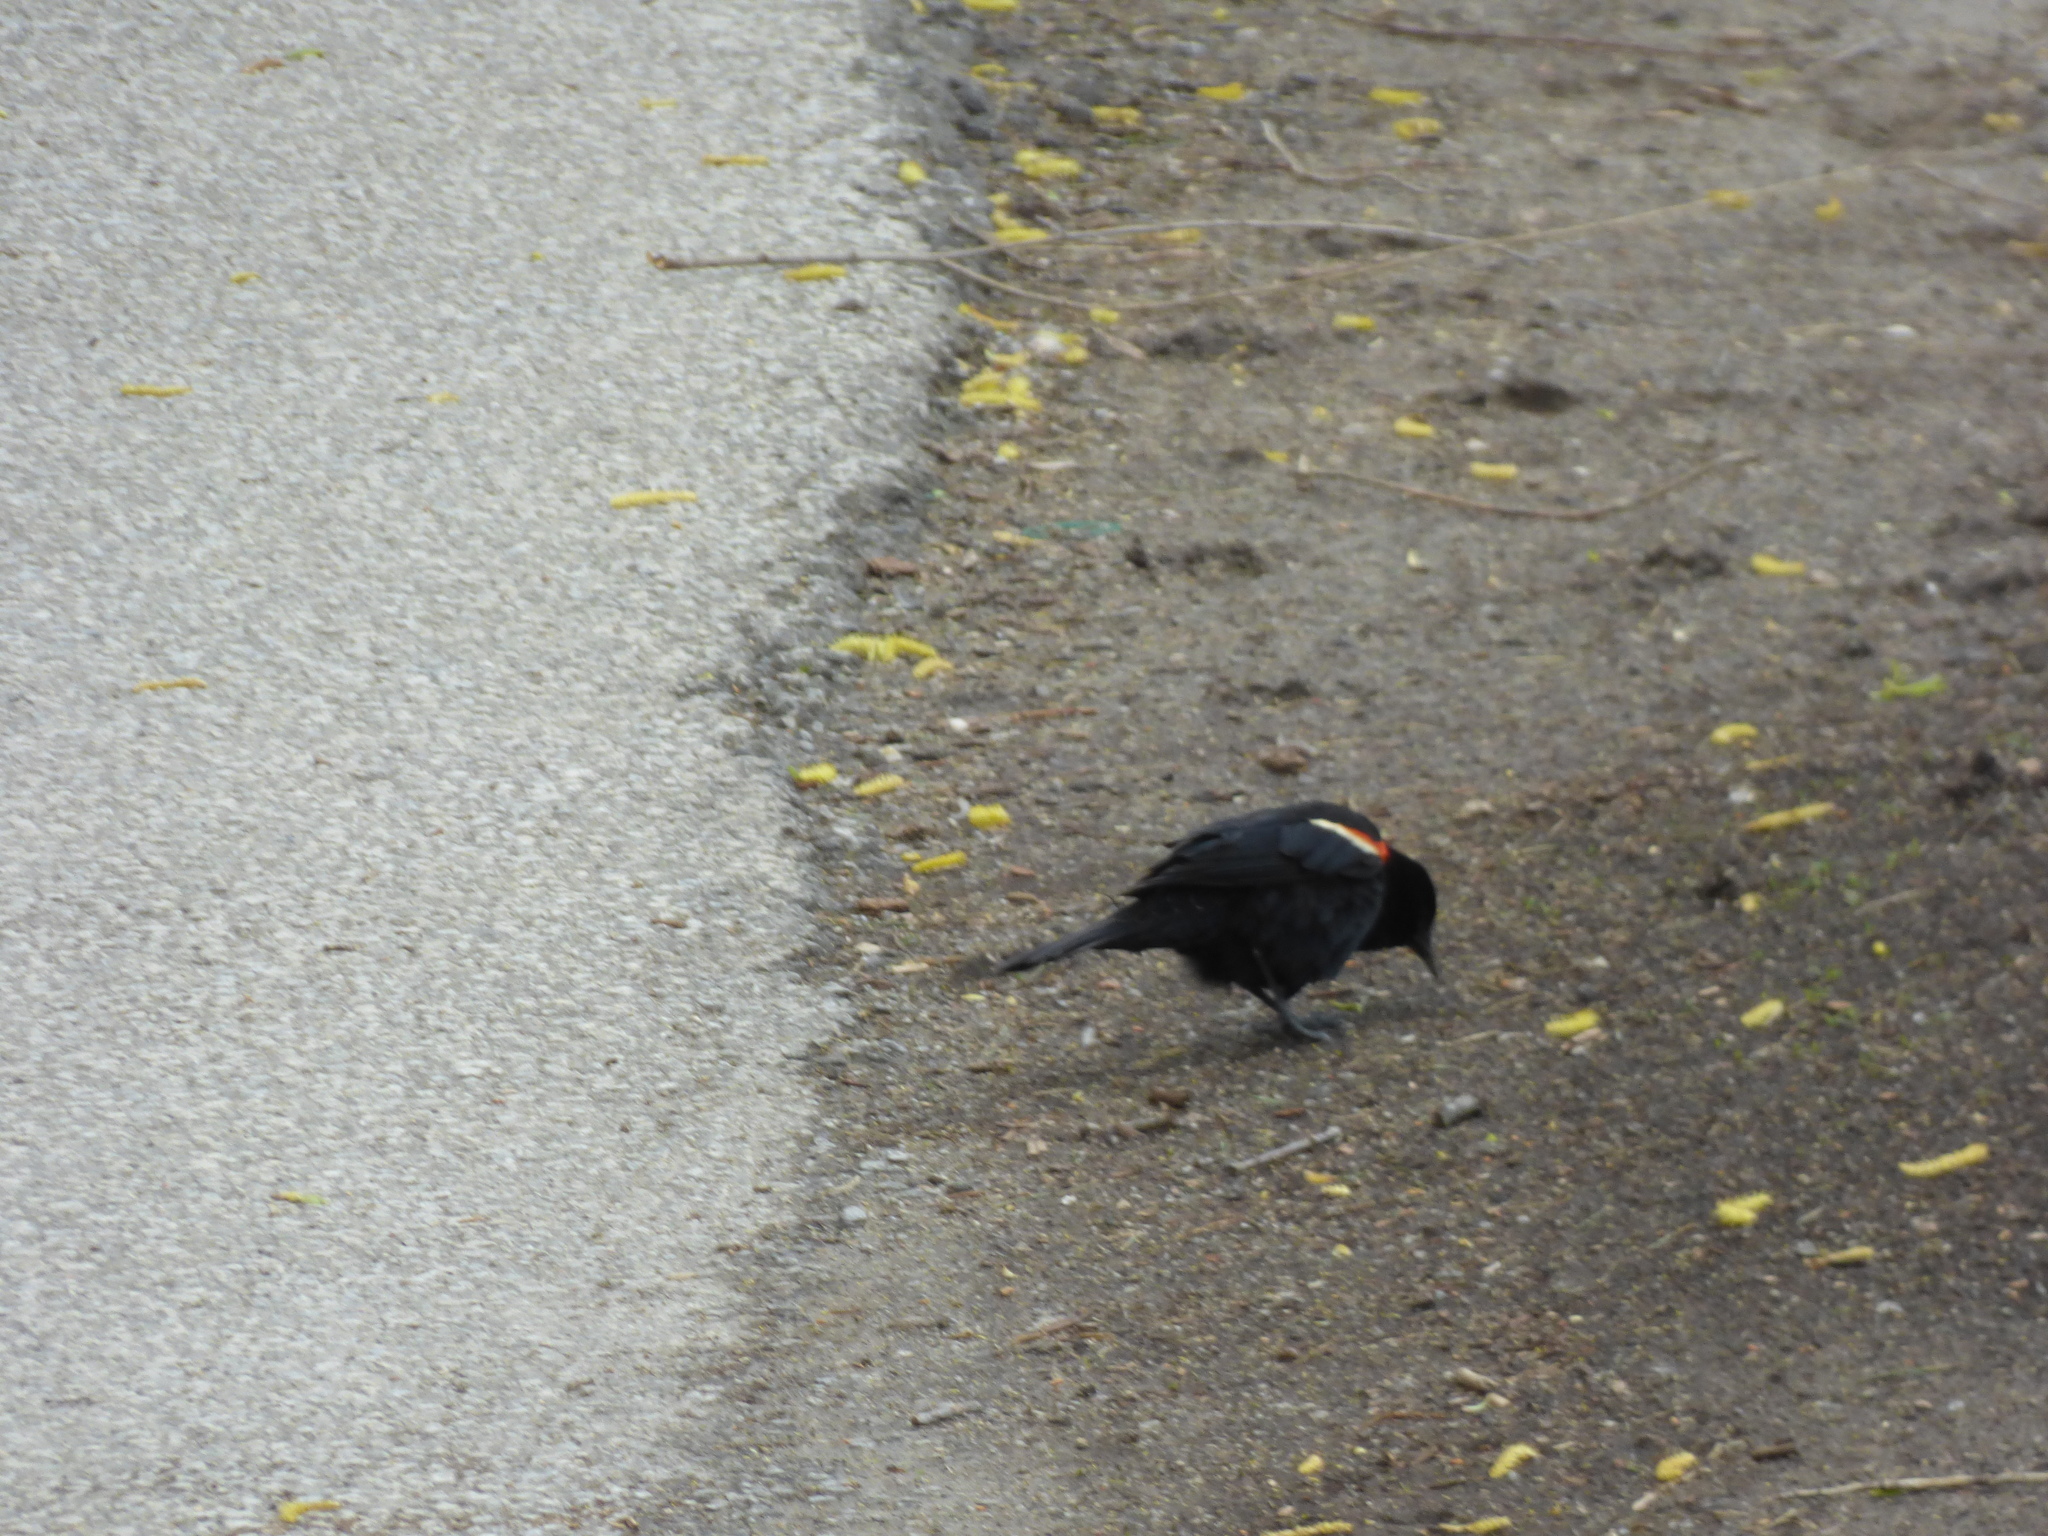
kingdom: Animalia
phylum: Chordata
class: Aves
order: Passeriformes
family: Icteridae
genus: Agelaius
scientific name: Agelaius phoeniceus
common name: Red-winged blackbird
